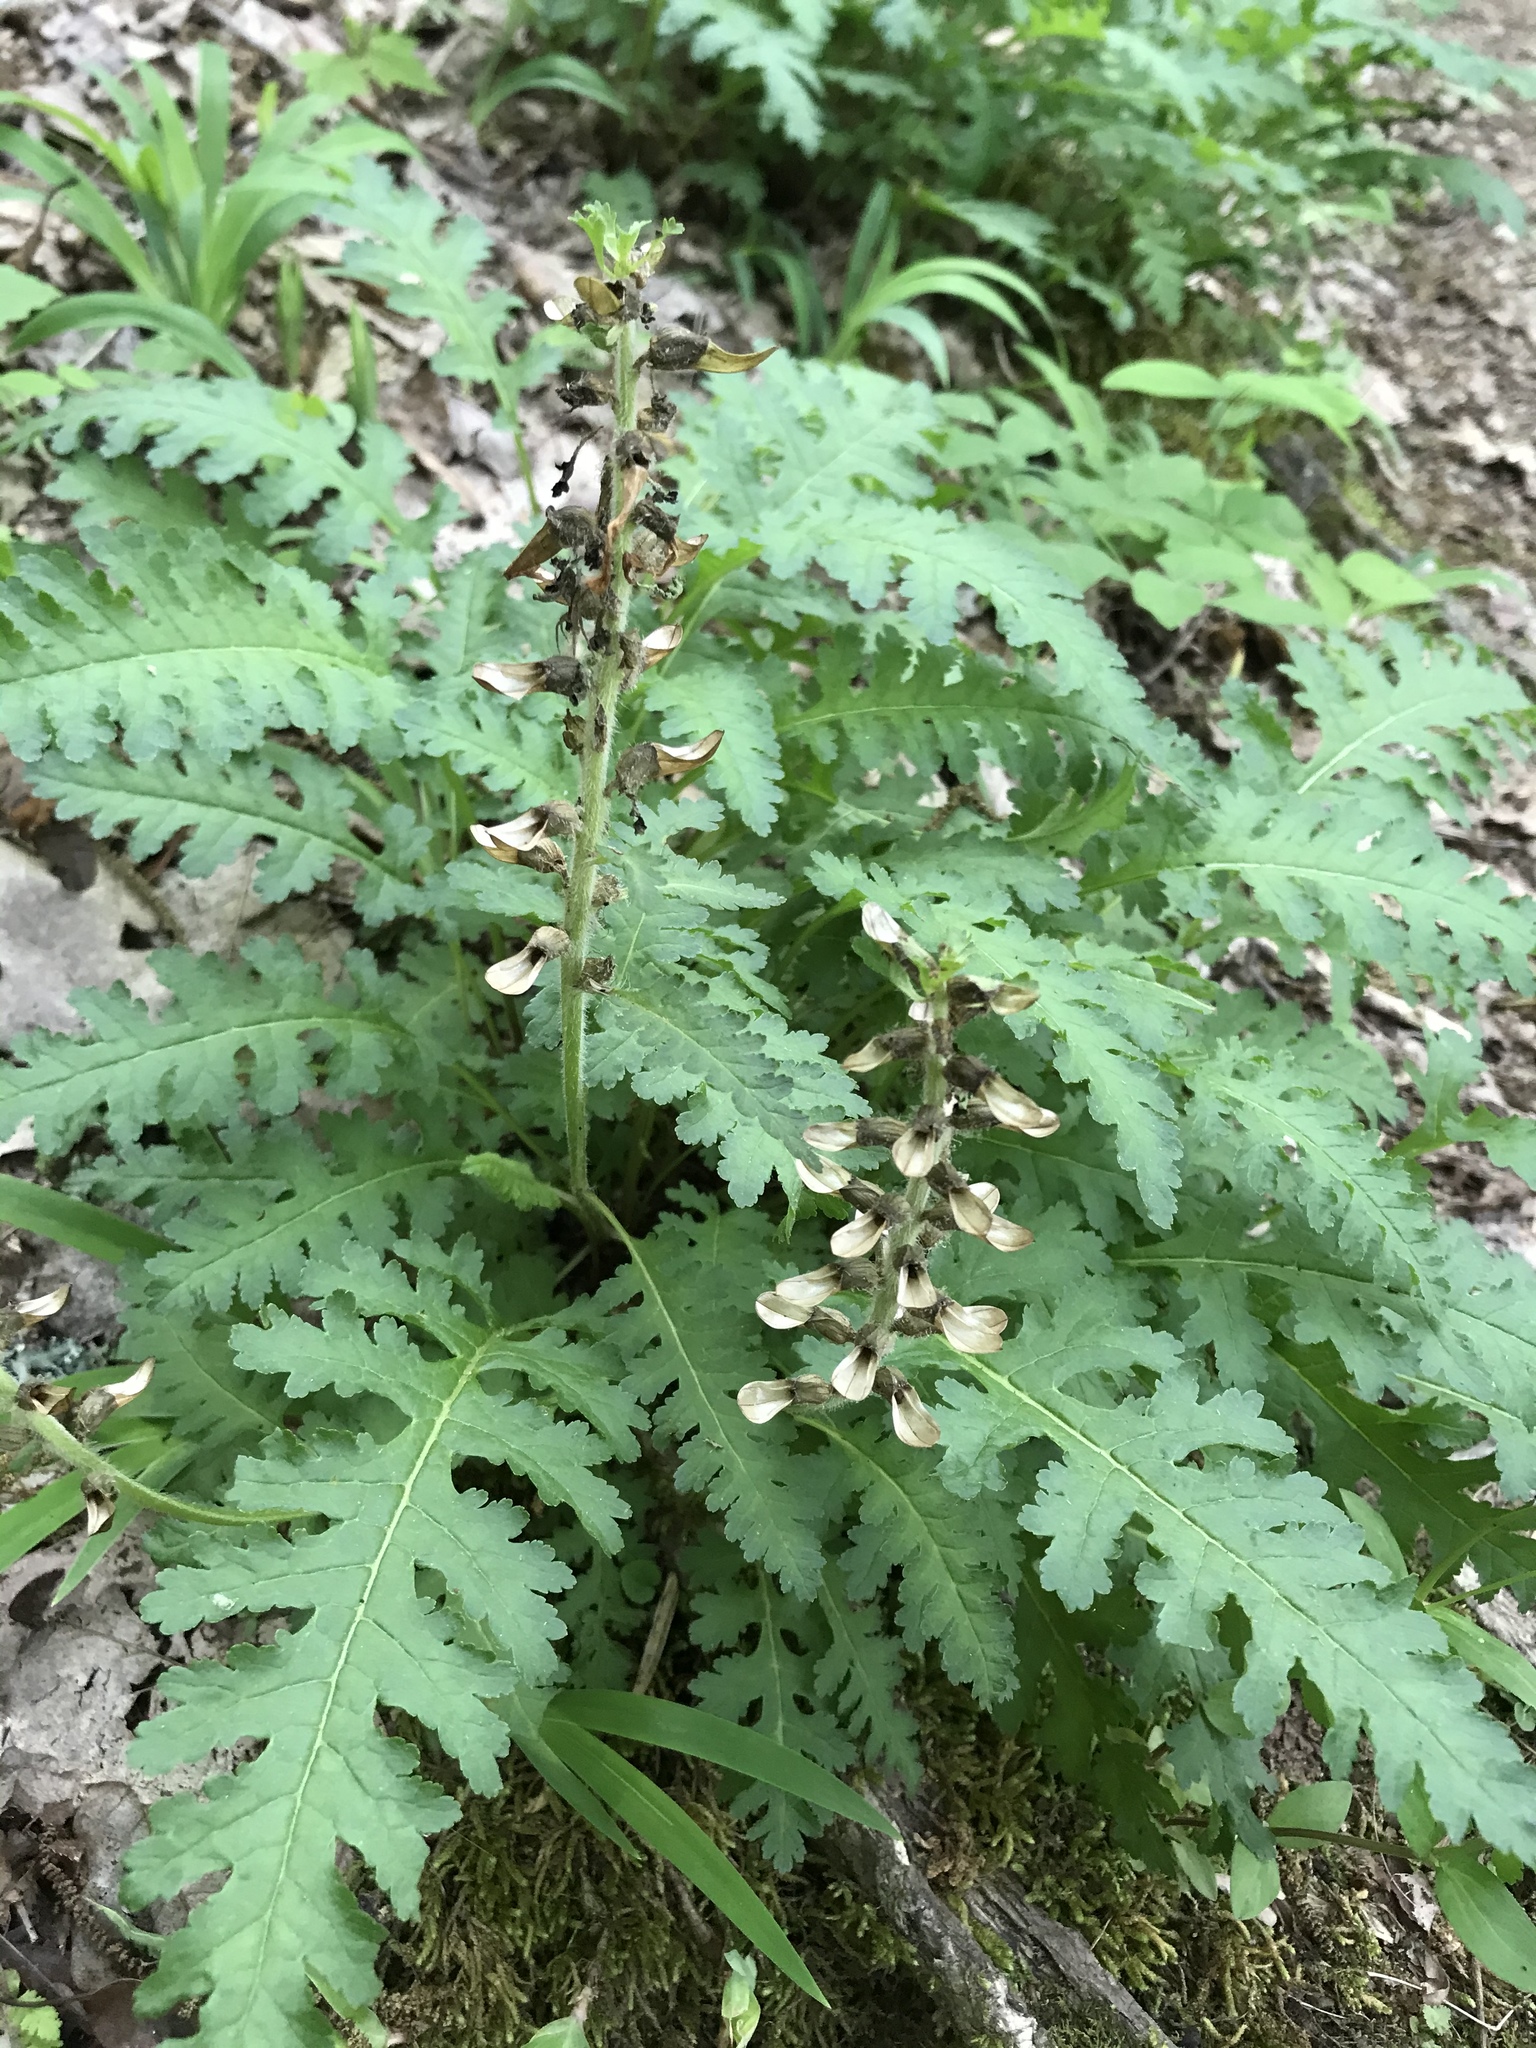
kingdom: Plantae
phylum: Tracheophyta
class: Magnoliopsida
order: Lamiales
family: Orobanchaceae
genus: Pedicularis
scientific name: Pedicularis canadensis
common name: Early lousewort
